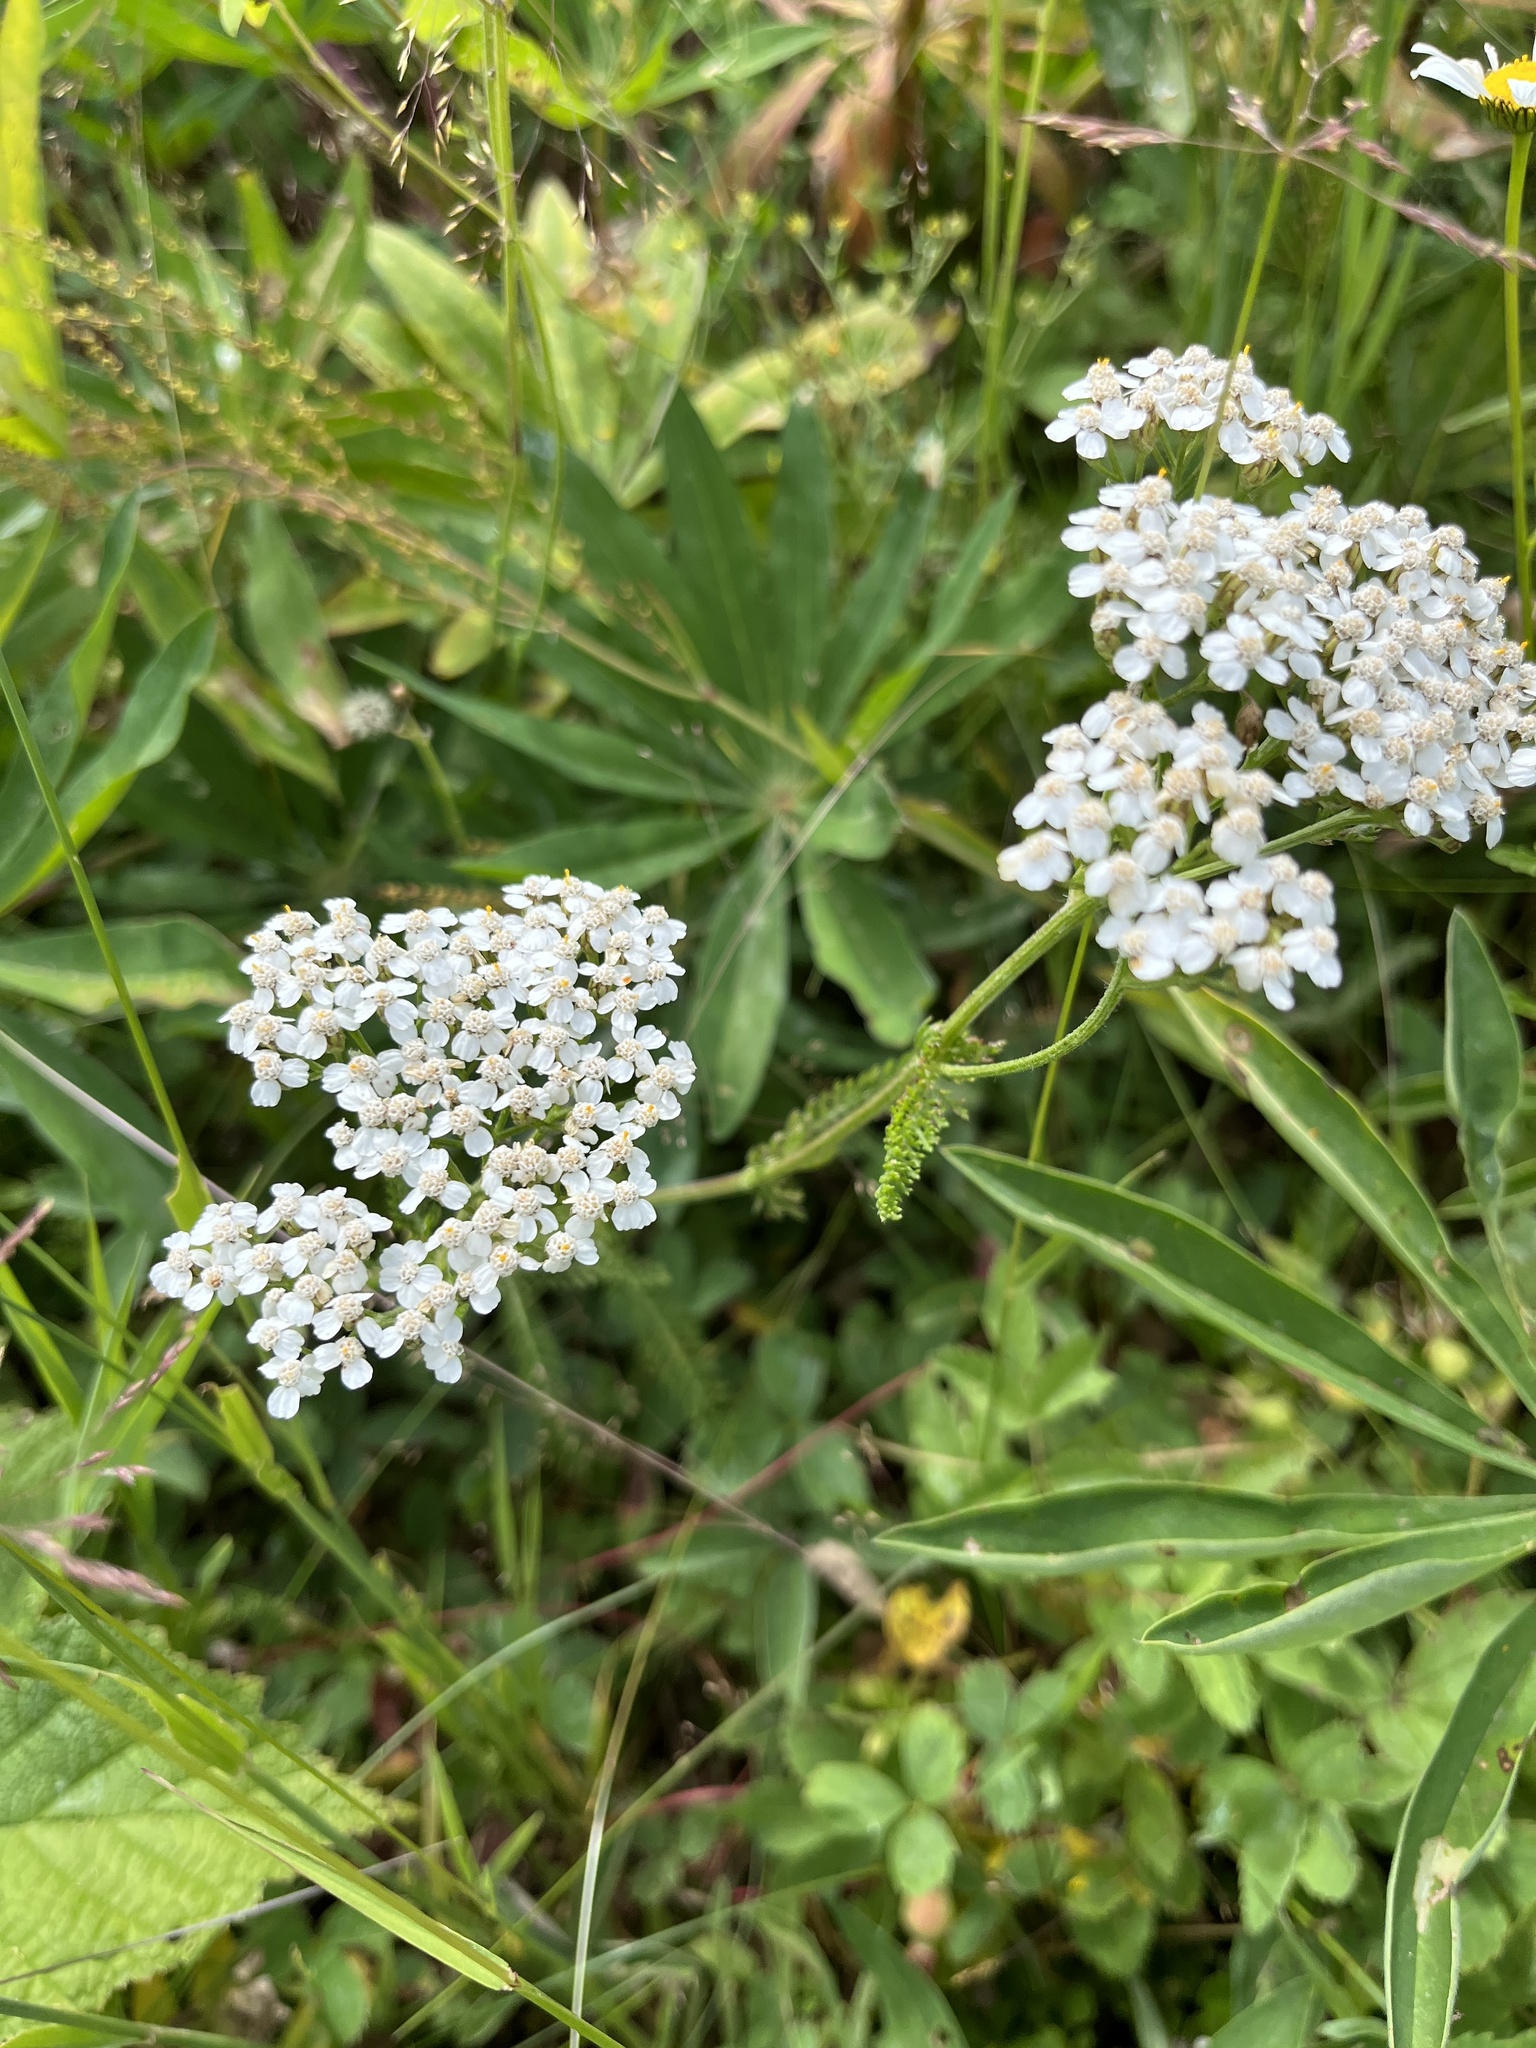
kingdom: Plantae
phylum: Tracheophyta
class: Magnoliopsida
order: Asterales
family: Asteraceae
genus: Achillea
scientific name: Achillea millefolium
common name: Yarrow
